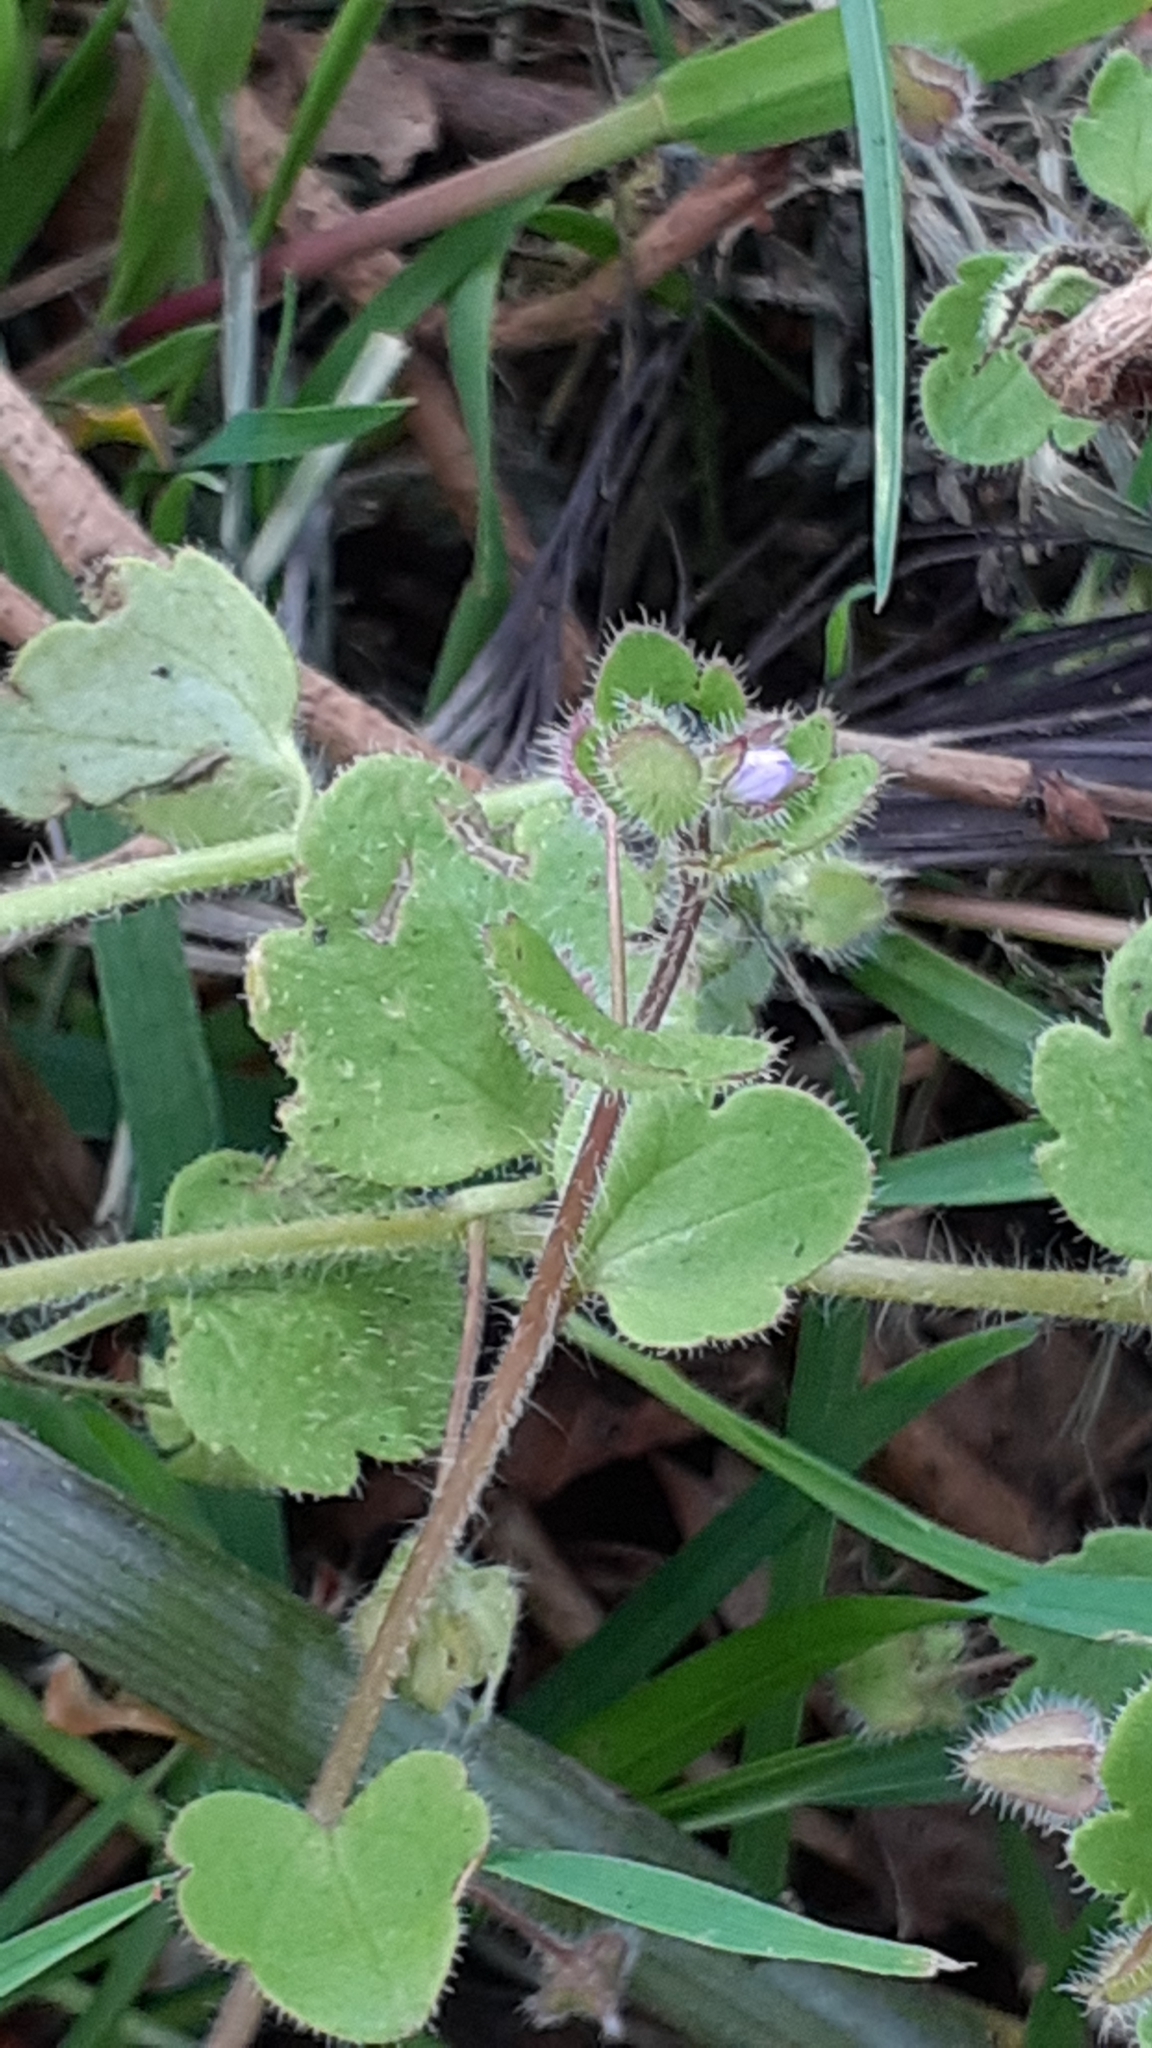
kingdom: Plantae
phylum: Tracheophyta
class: Magnoliopsida
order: Lamiales
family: Plantaginaceae
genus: Veronica
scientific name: Veronica sublobata
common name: False ivy-leaved speedwell
